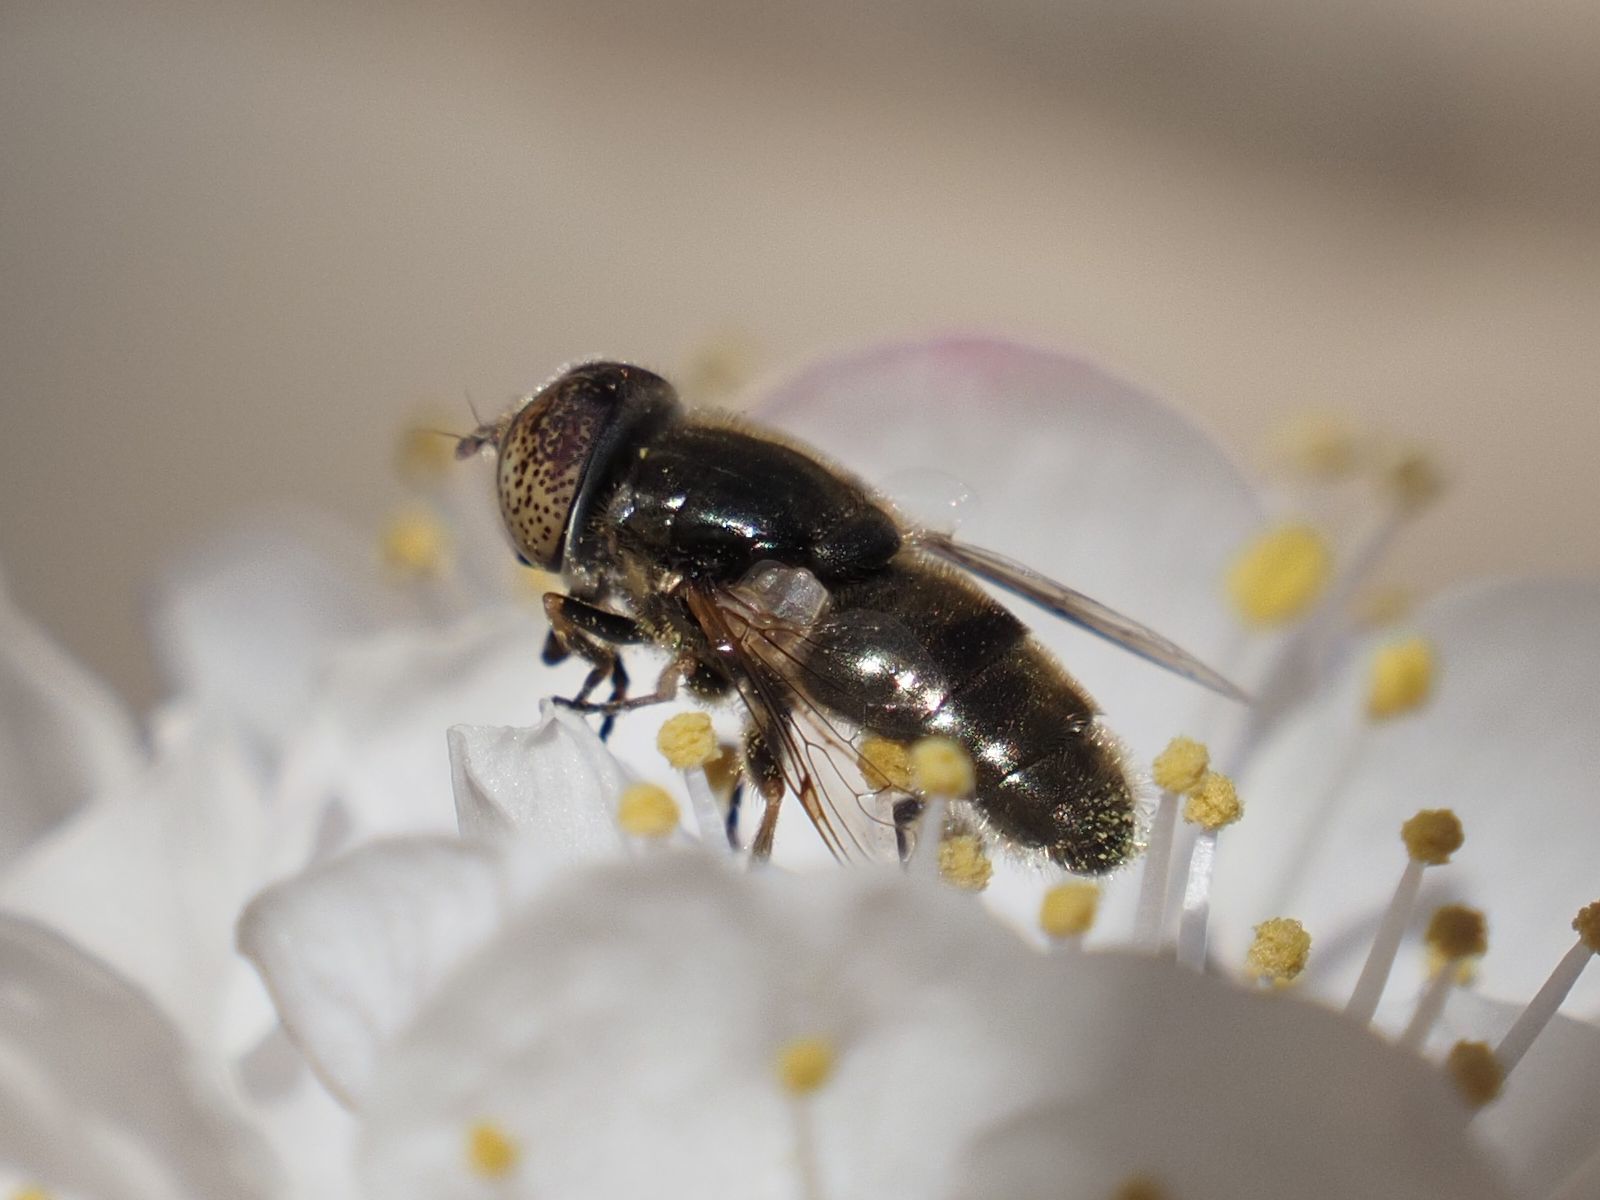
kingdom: Animalia
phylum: Arthropoda
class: Insecta
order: Diptera
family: Syrphidae
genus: Eristalinus
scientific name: Eristalinus aeneus
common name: Syrphid fly
